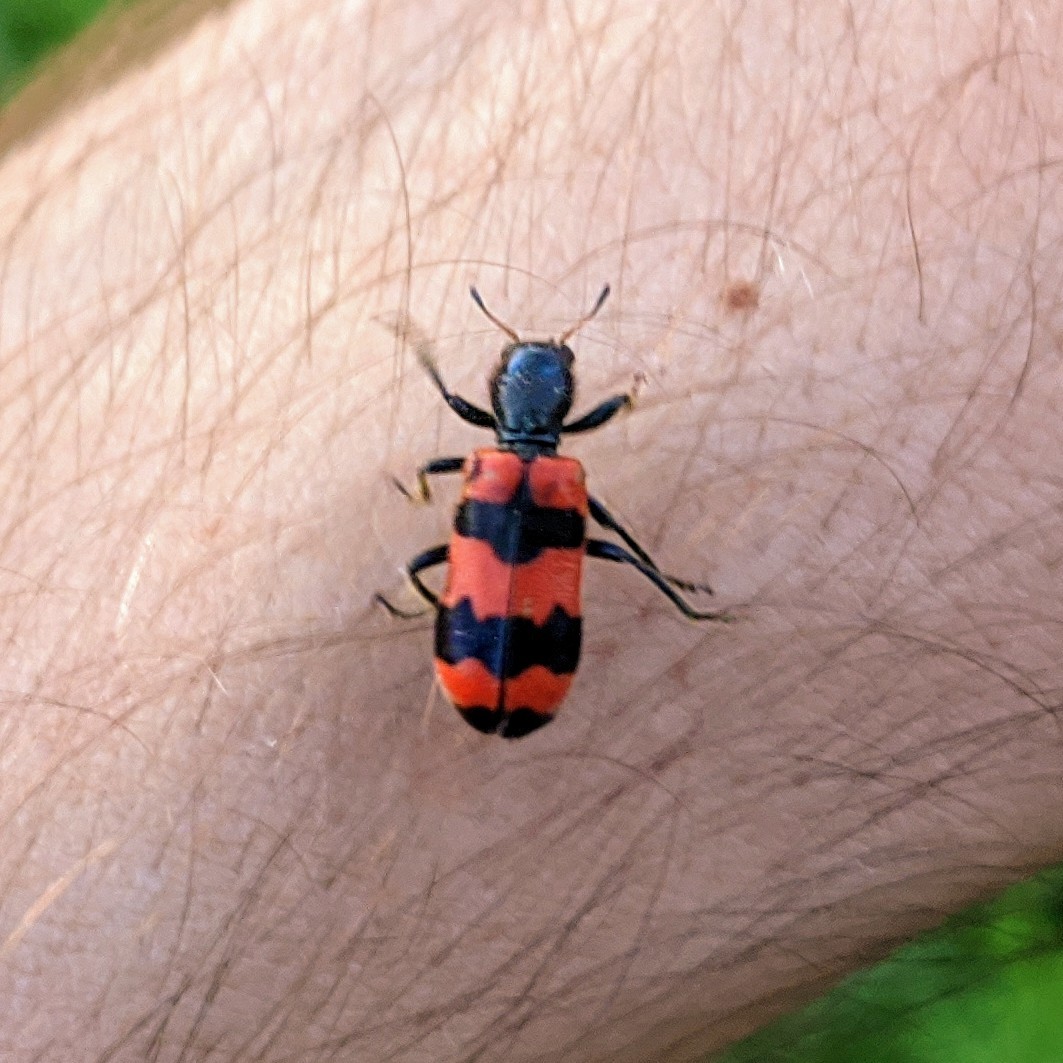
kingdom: Animalia
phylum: Arthropoda
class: Insecta
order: Coleoptera
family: Cleridae
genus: Trichodes
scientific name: Trichodes apiarius
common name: Bee-eating beetle
